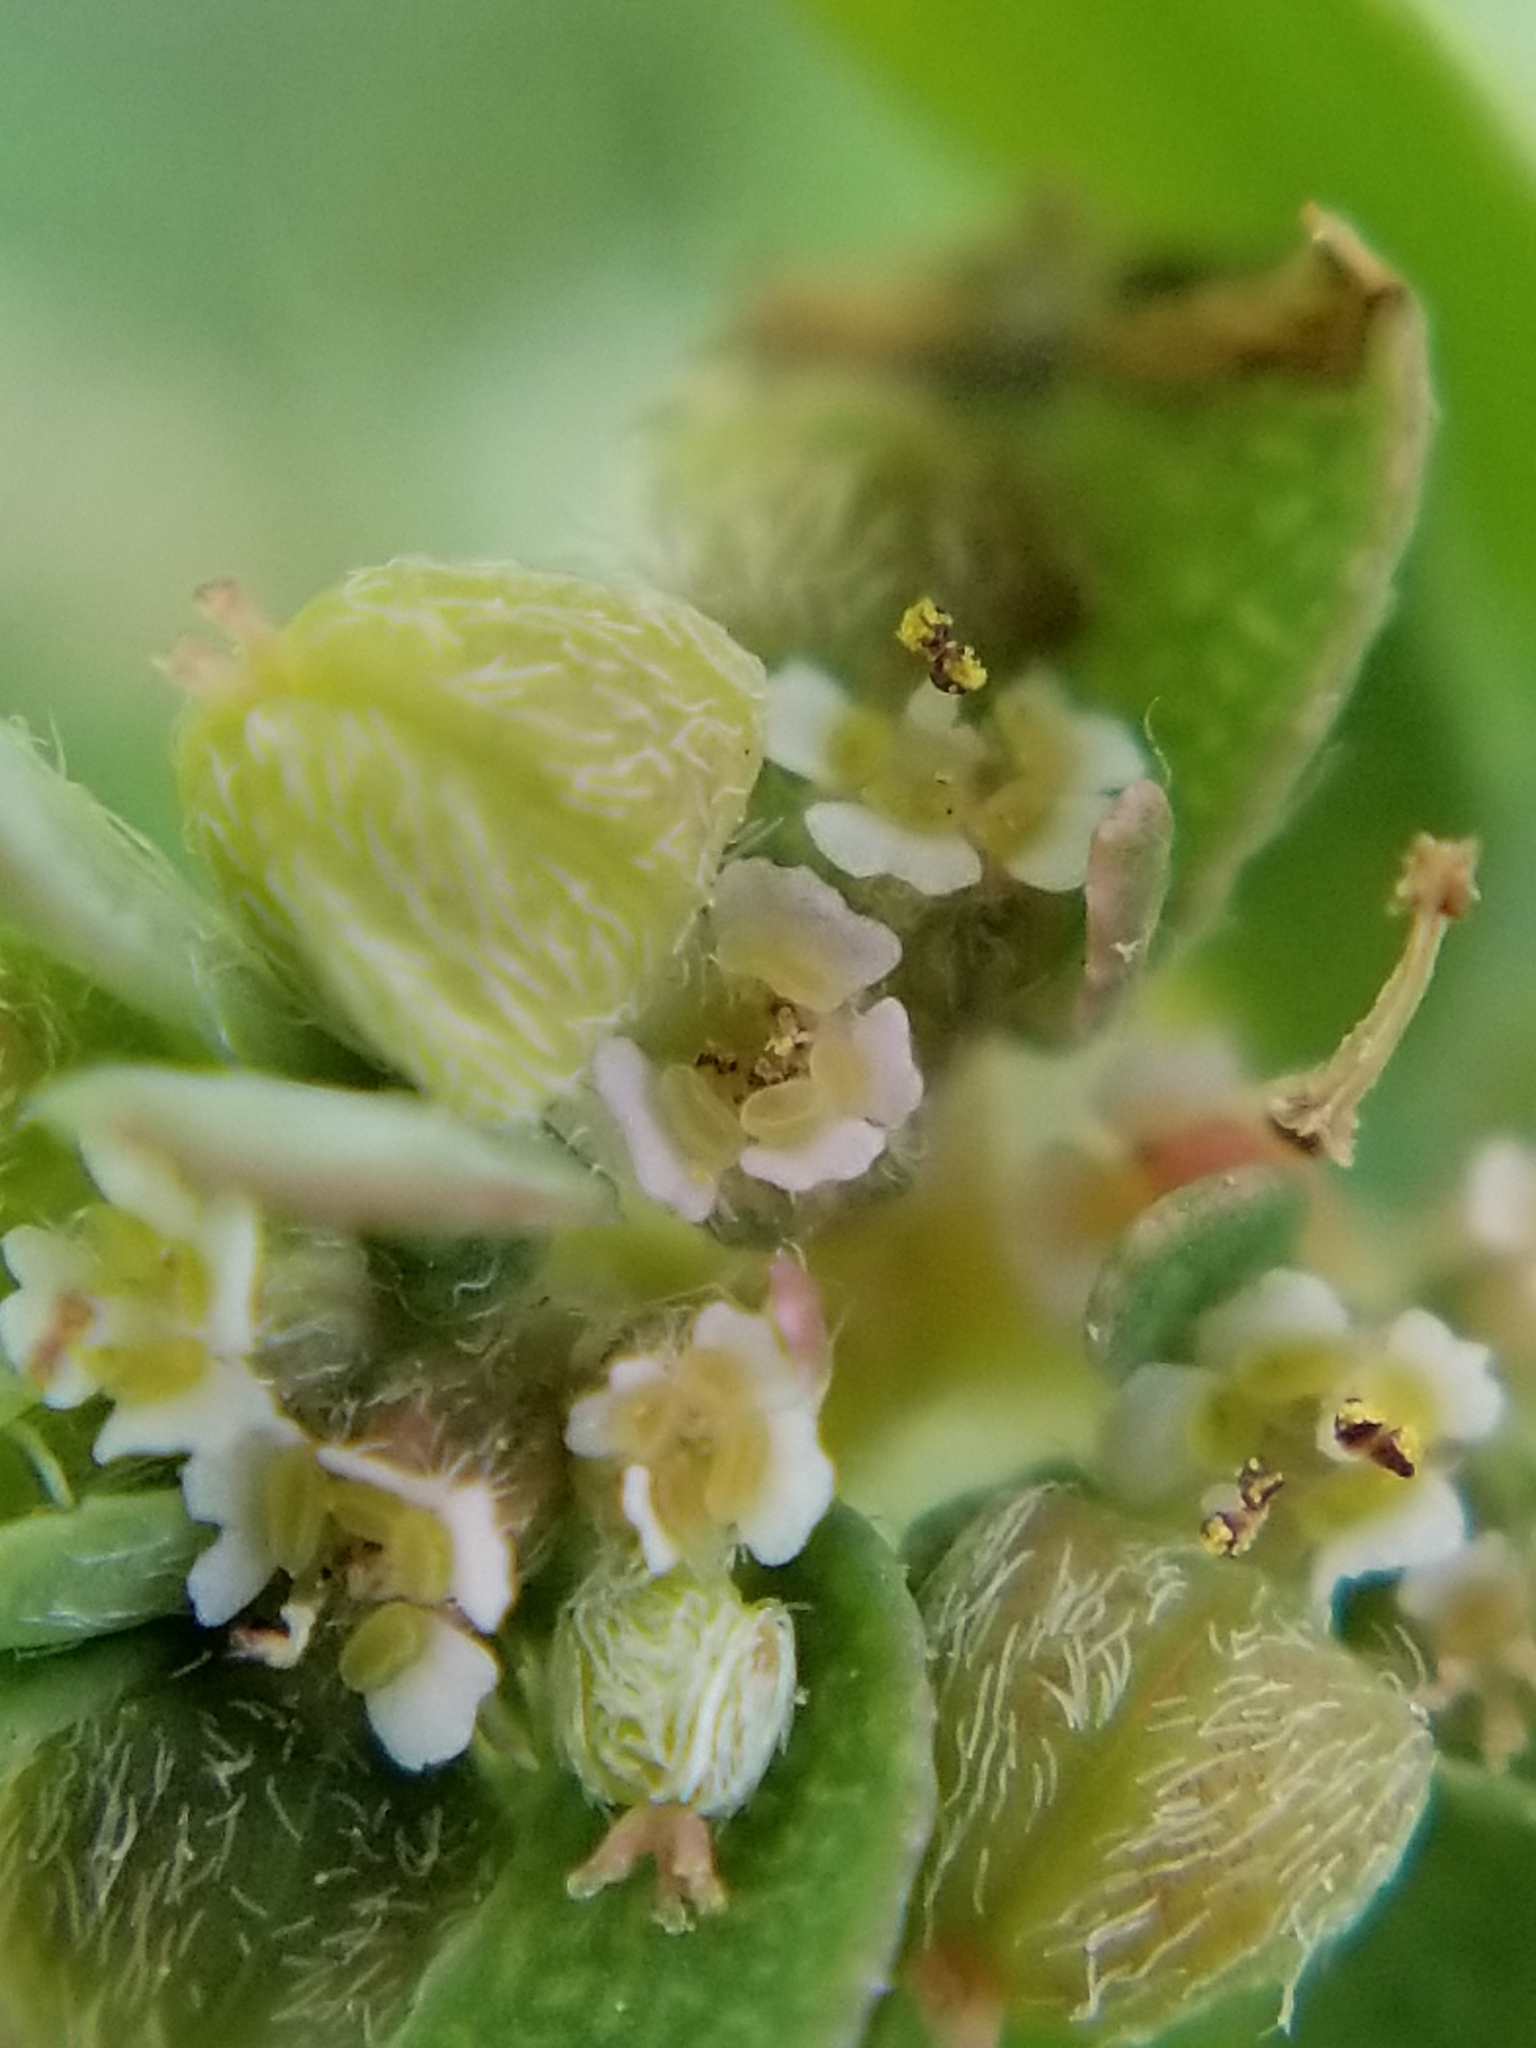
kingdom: Plantae
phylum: Tracheophyta
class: Magnoliopsida
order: Malpighiales
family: Euphorbiaceae
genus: Euphorbia
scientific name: Euphorbia maculata
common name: Spotted spurge
